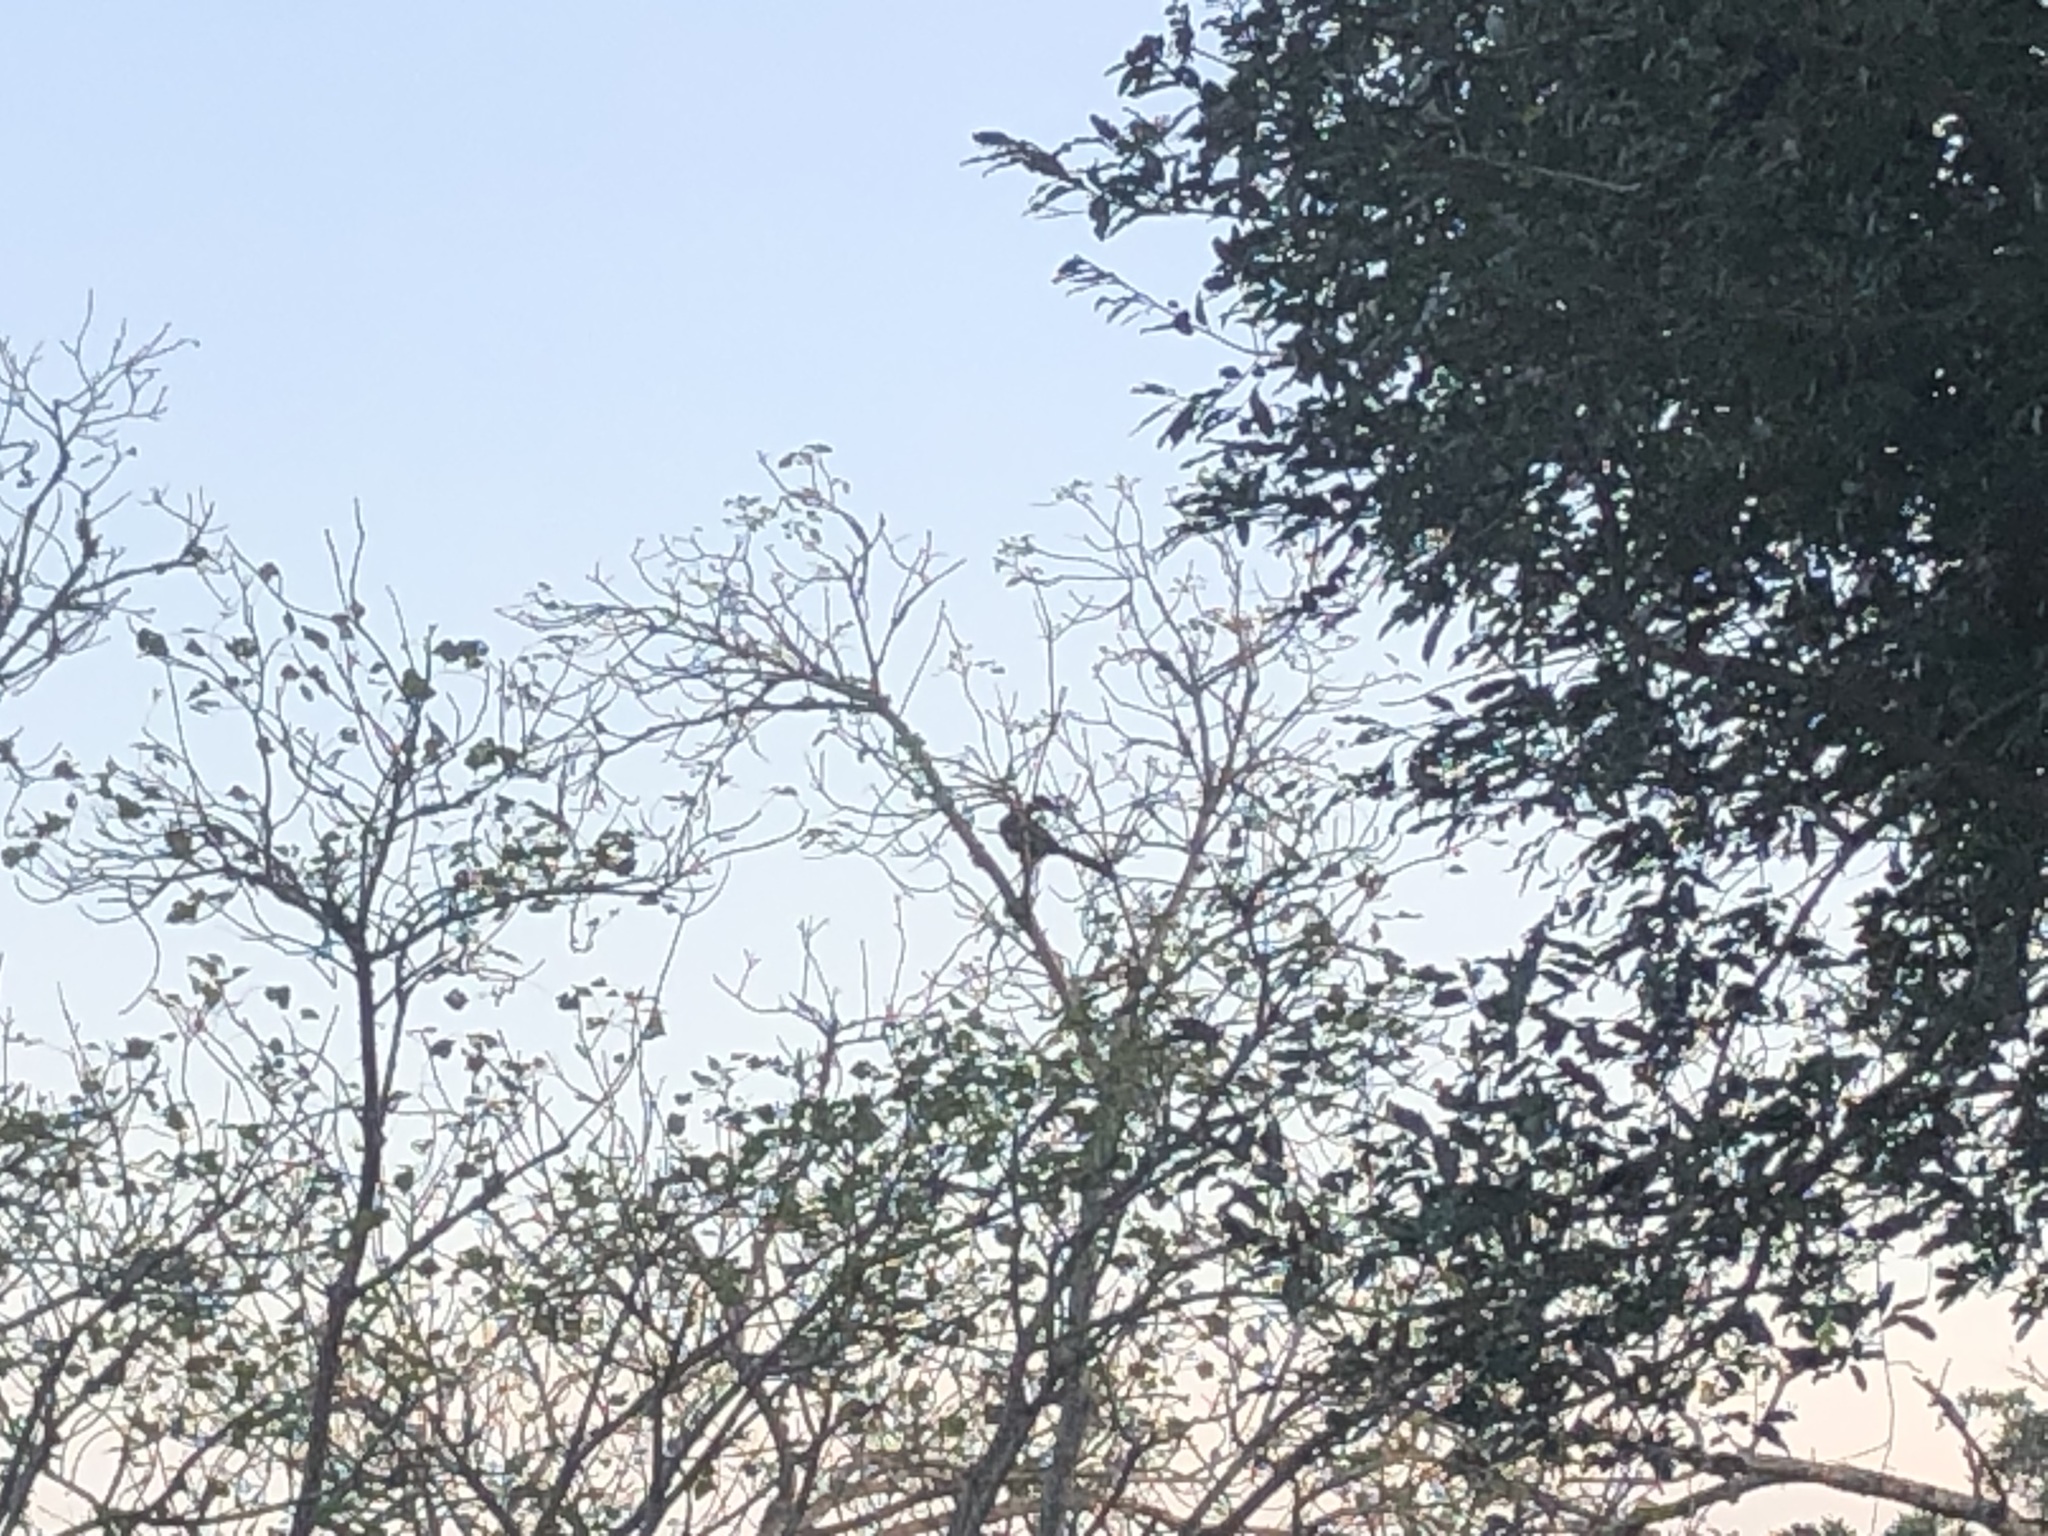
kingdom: Animalia
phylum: Chordata
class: Aves
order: Musophagiformes
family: Musophagidae
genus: Tauraco
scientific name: Tauraco porphyreolophus
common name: Purple-crested turaco
